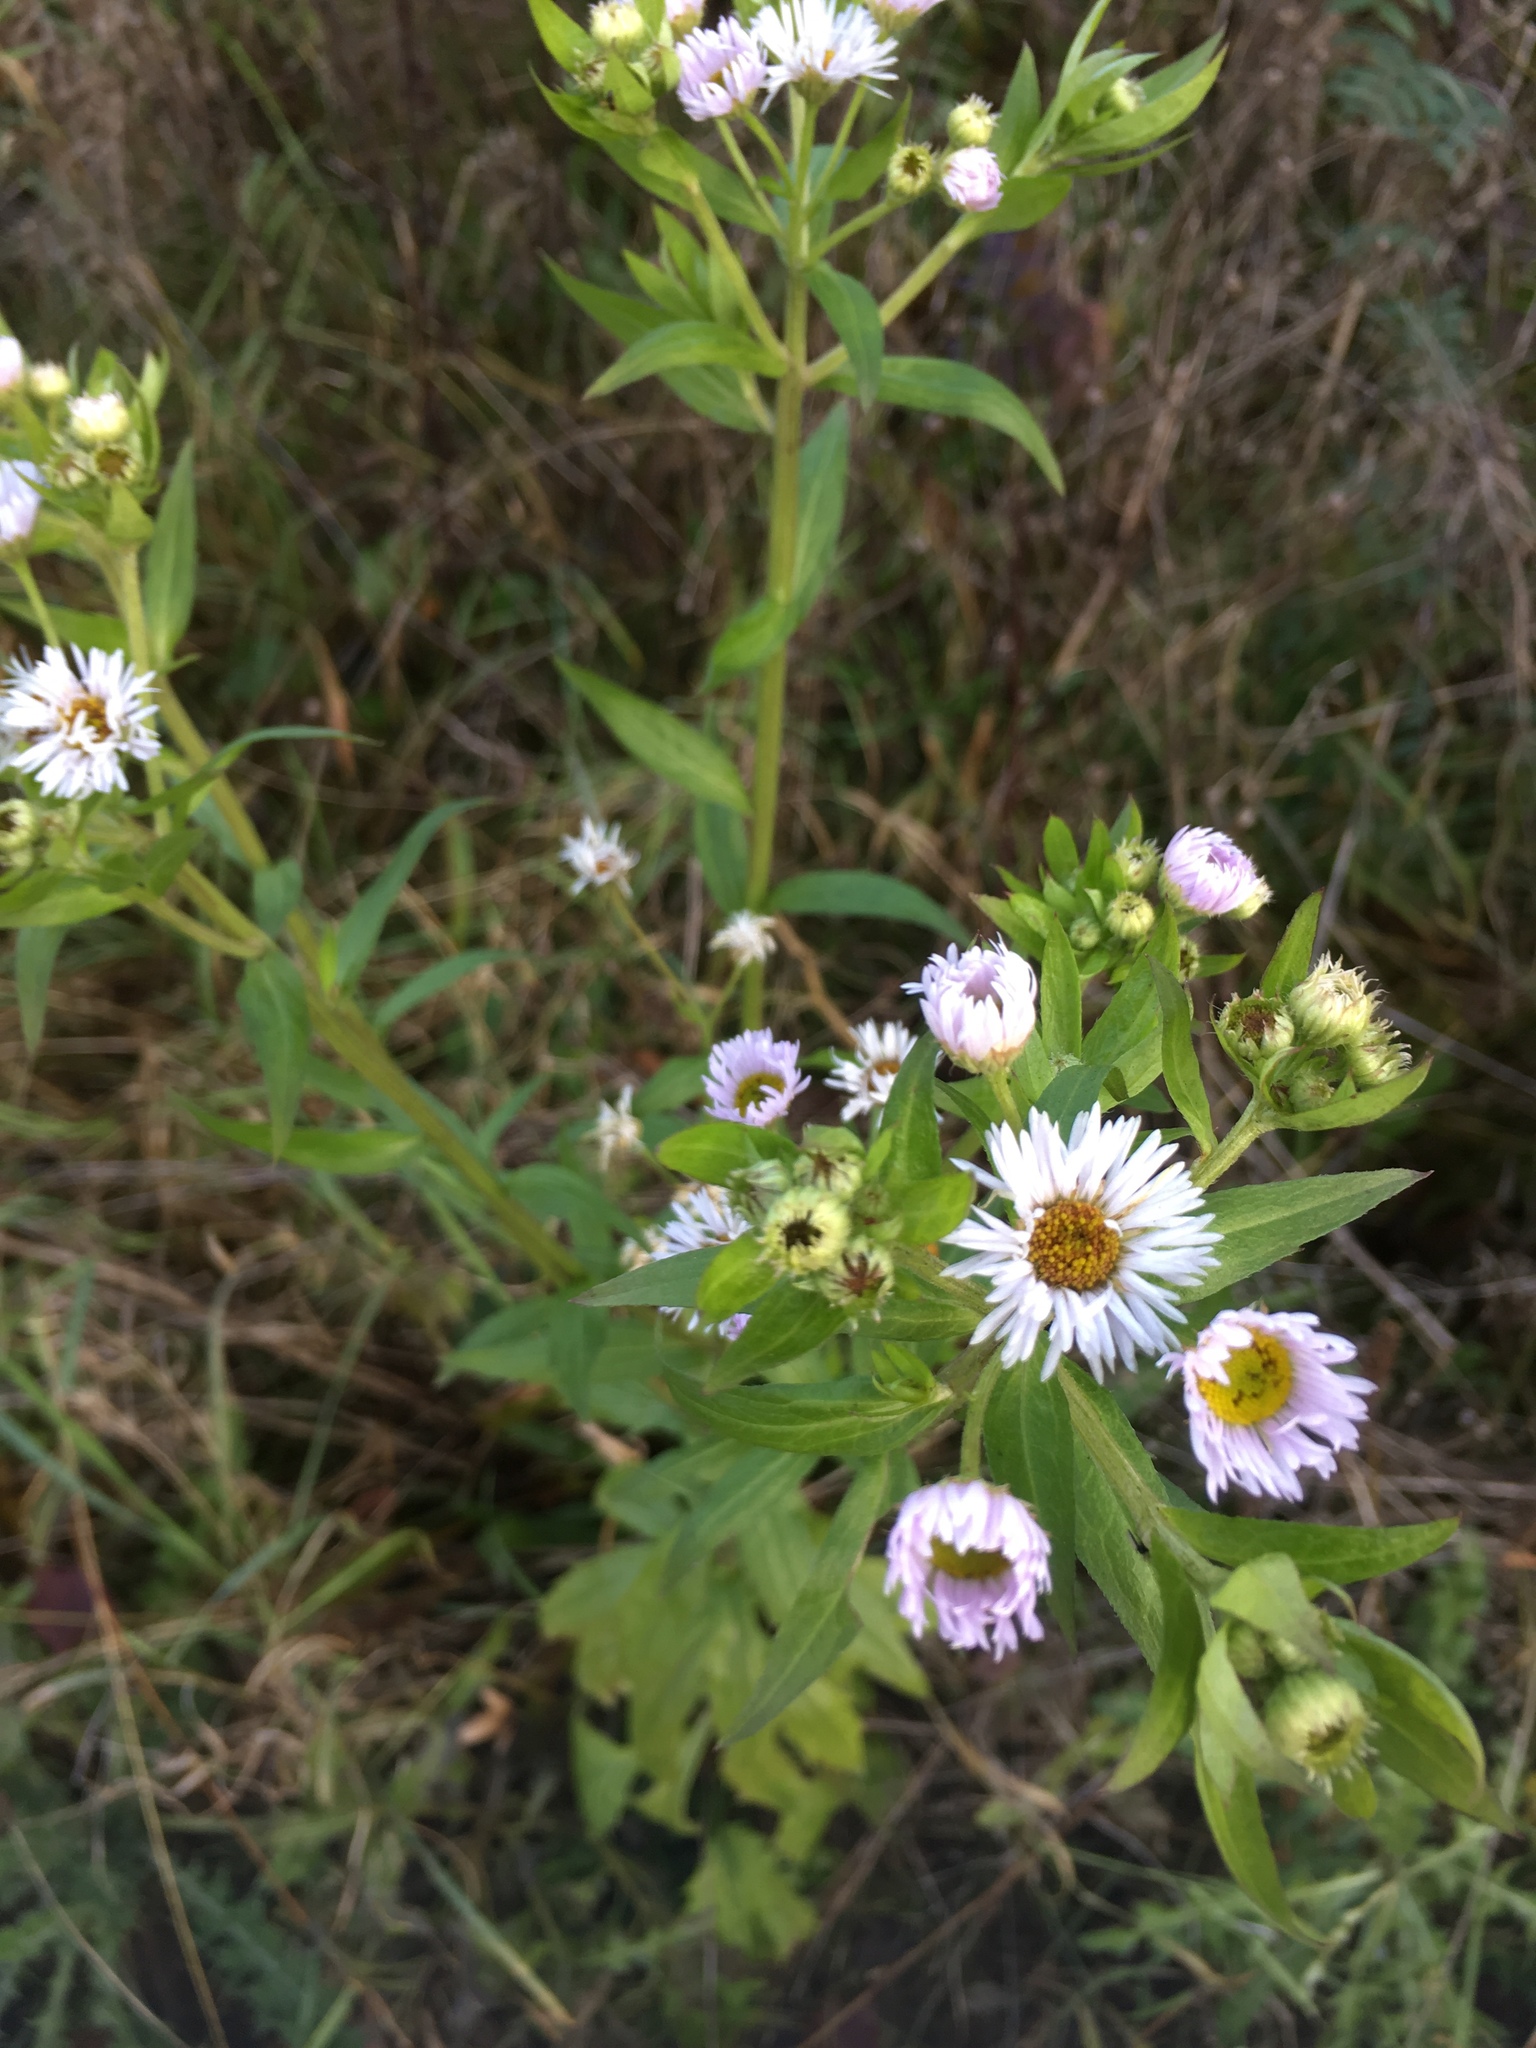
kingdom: Plantae
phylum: Tracheophyta
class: Magnoliopsida
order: Asterales
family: Asteraceae
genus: Erigeron
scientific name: Erigeron annuus
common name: Tall fleabane
